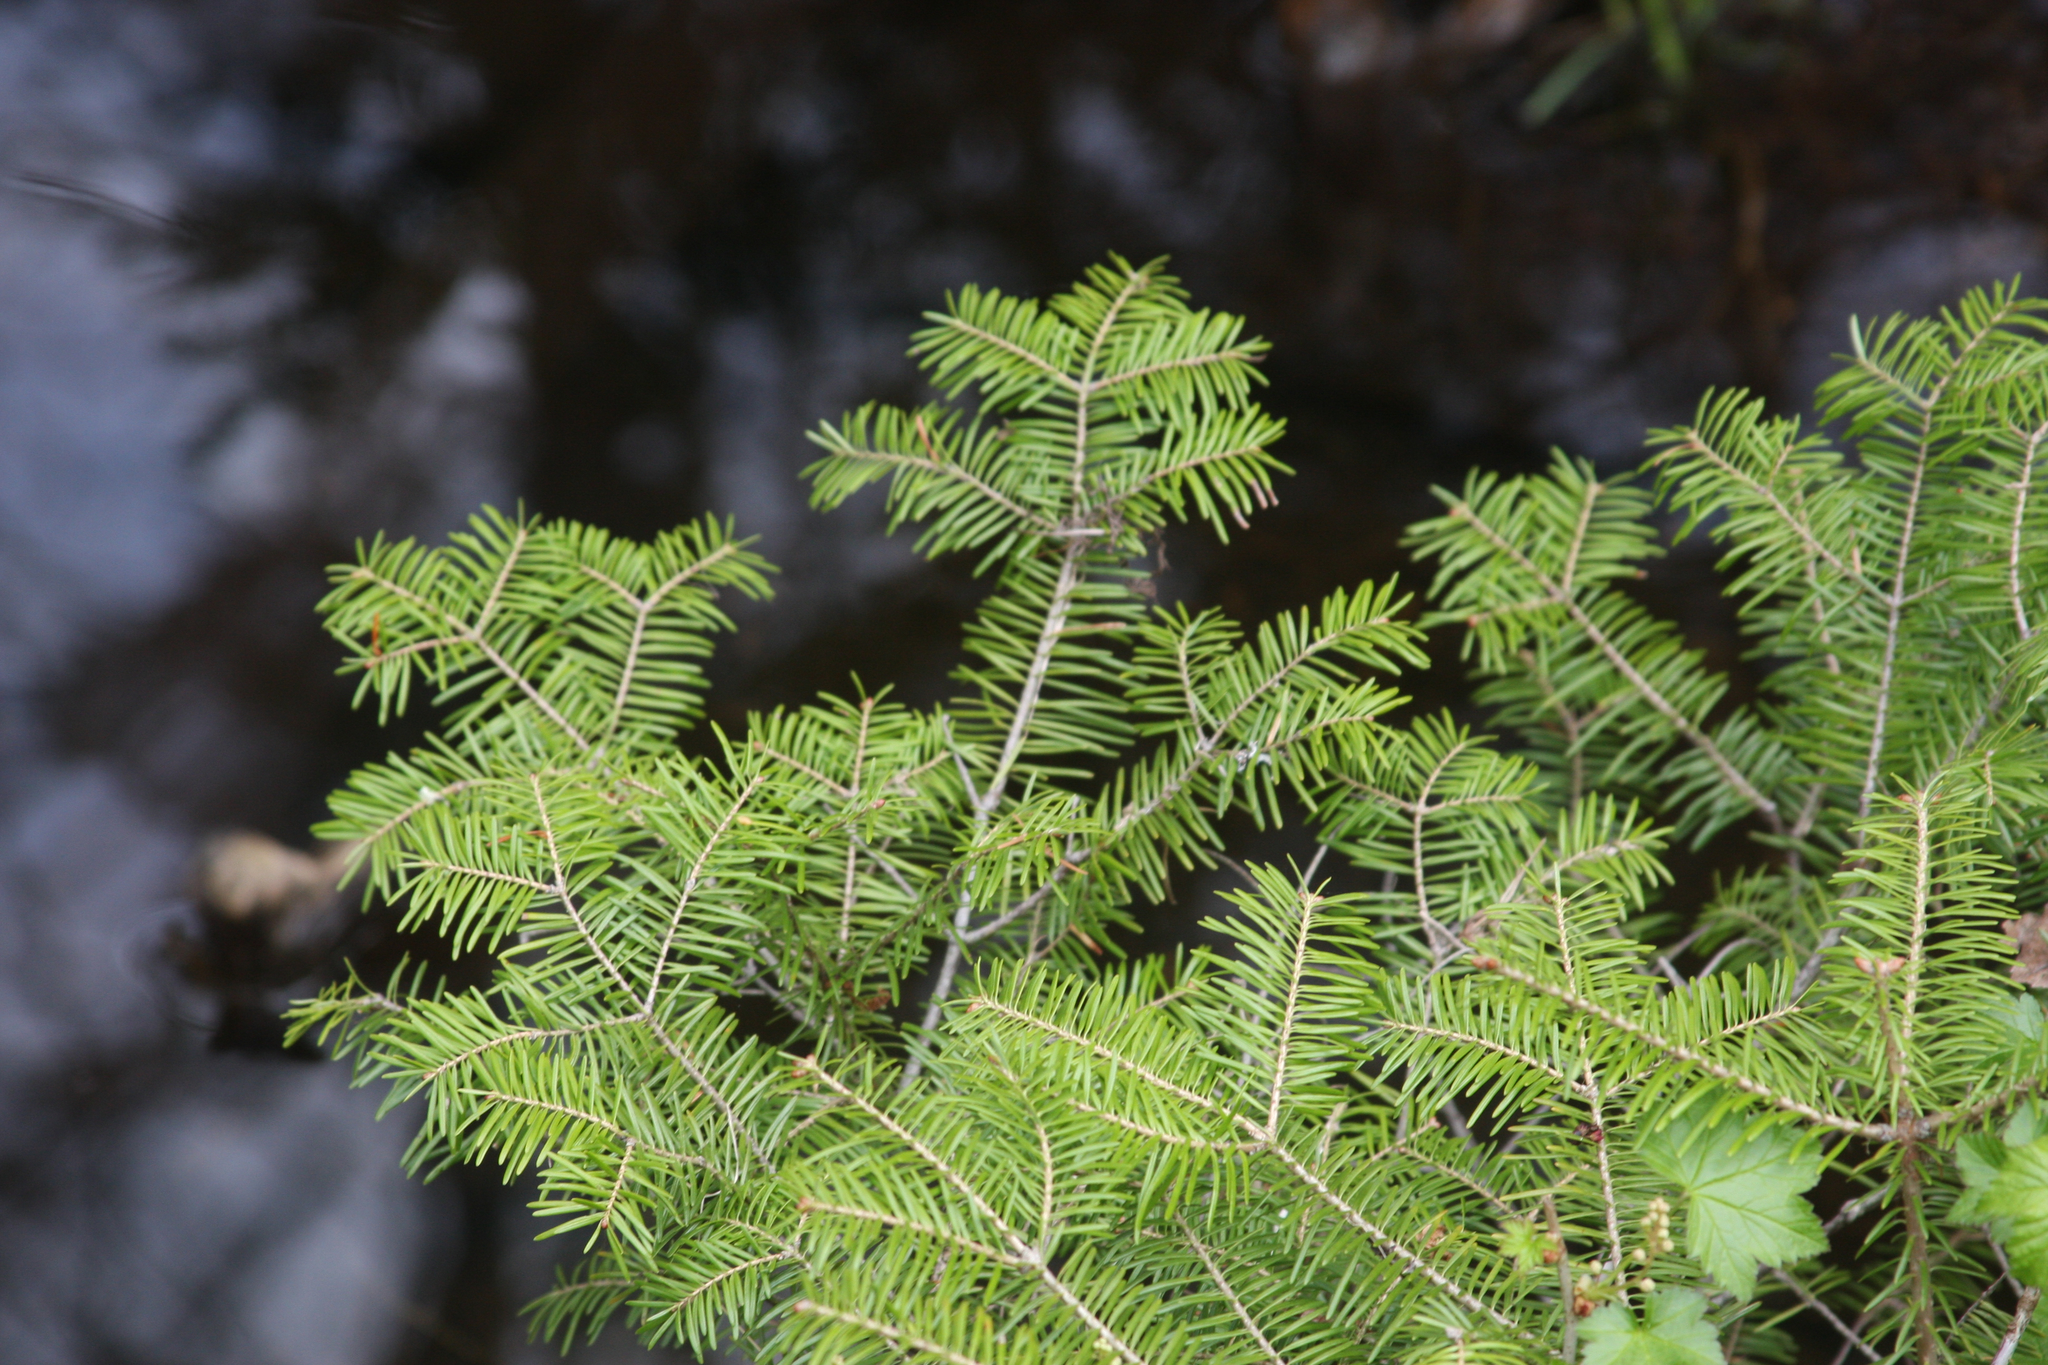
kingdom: Plantae
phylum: Tracheophyta
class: Pinopsida
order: Pinales
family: Pinaceae
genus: Abies
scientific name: Abies balsamea
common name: Balsam fir
